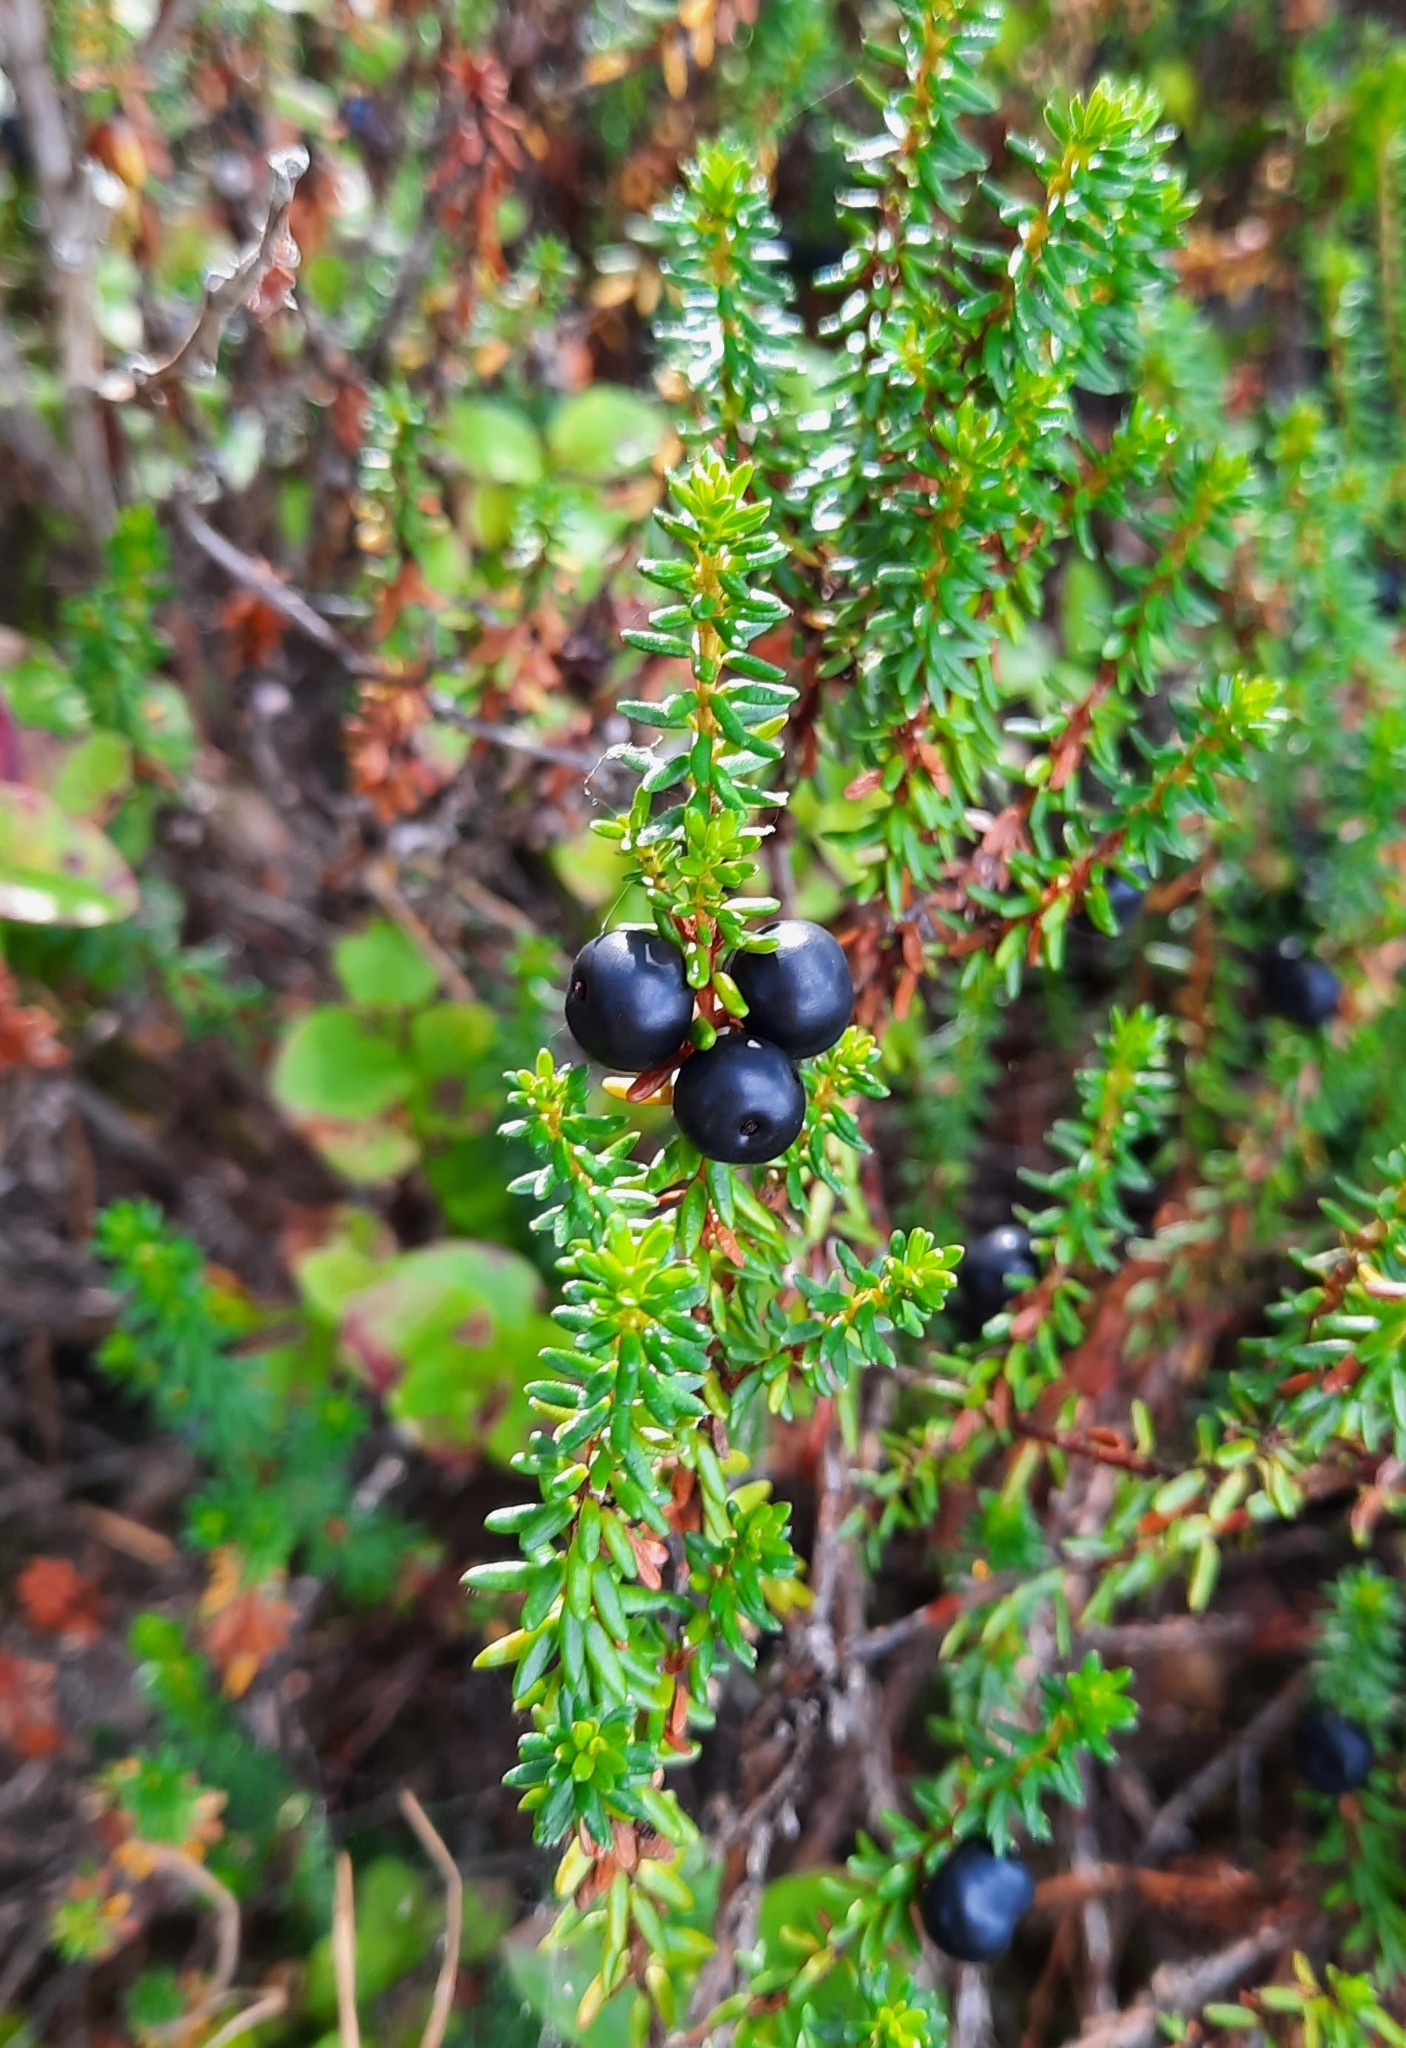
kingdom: Plantae
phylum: Tracheophyta
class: Magnoliopsida
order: Ericales
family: Ericaceae
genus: Empetrum
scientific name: Empetrum nigrum
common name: Black crowberry
